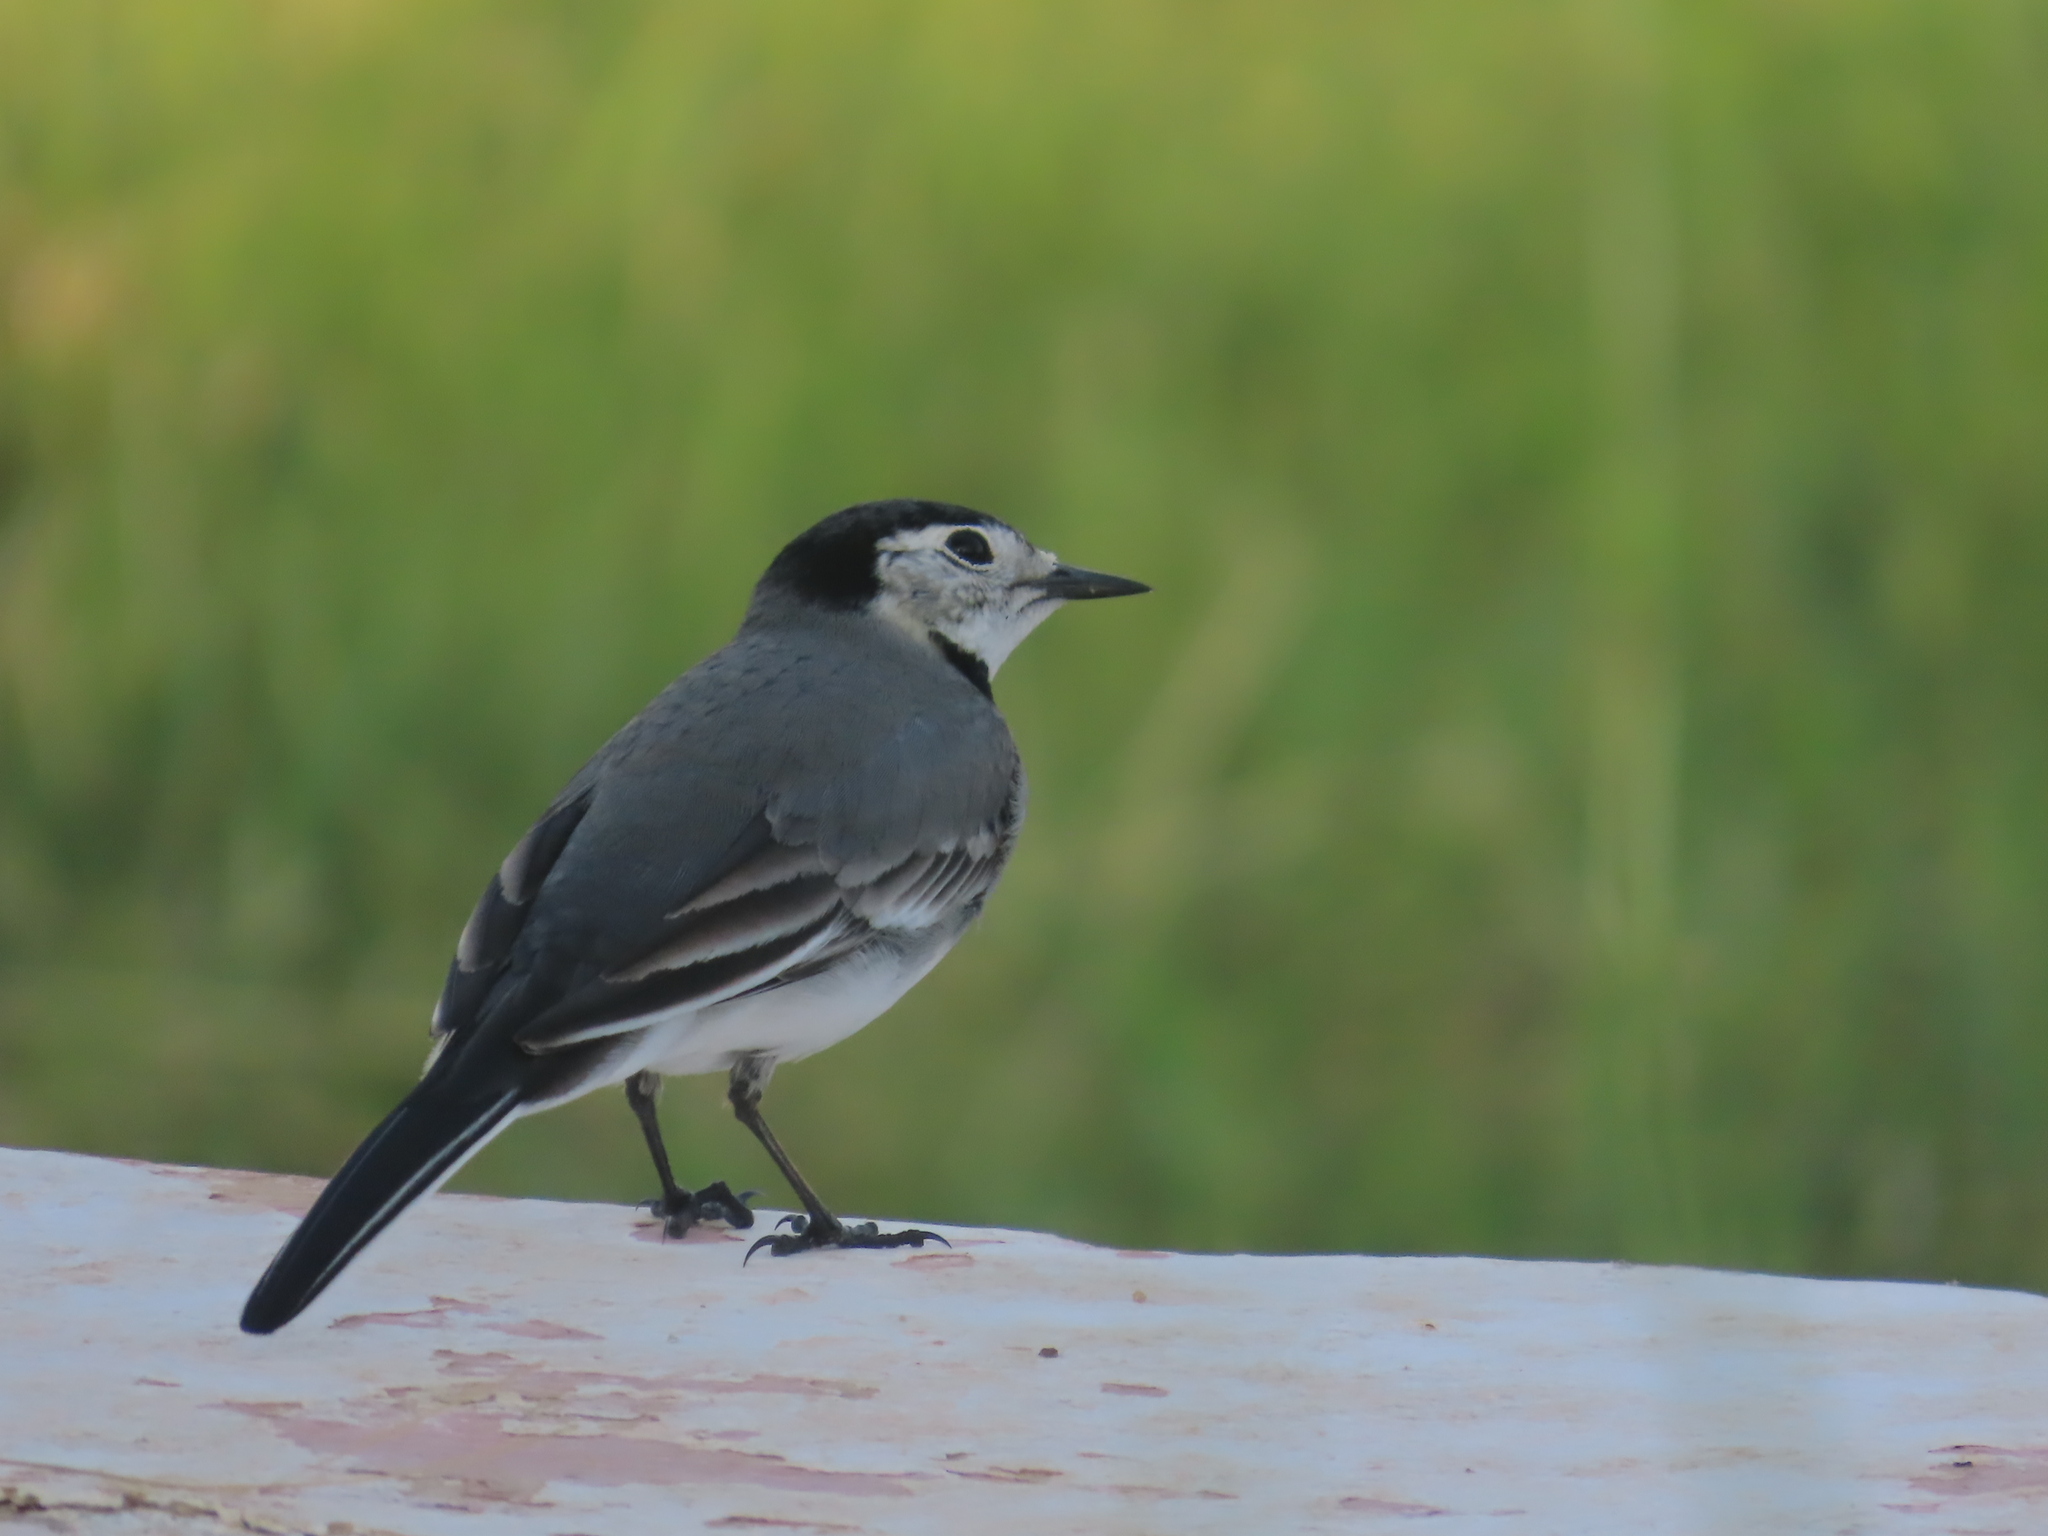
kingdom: Animalia
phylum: Chordata
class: Aves
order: Passeriformes
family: Motacillidae
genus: Motacilla
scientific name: Motacilla alba
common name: White wagtail
